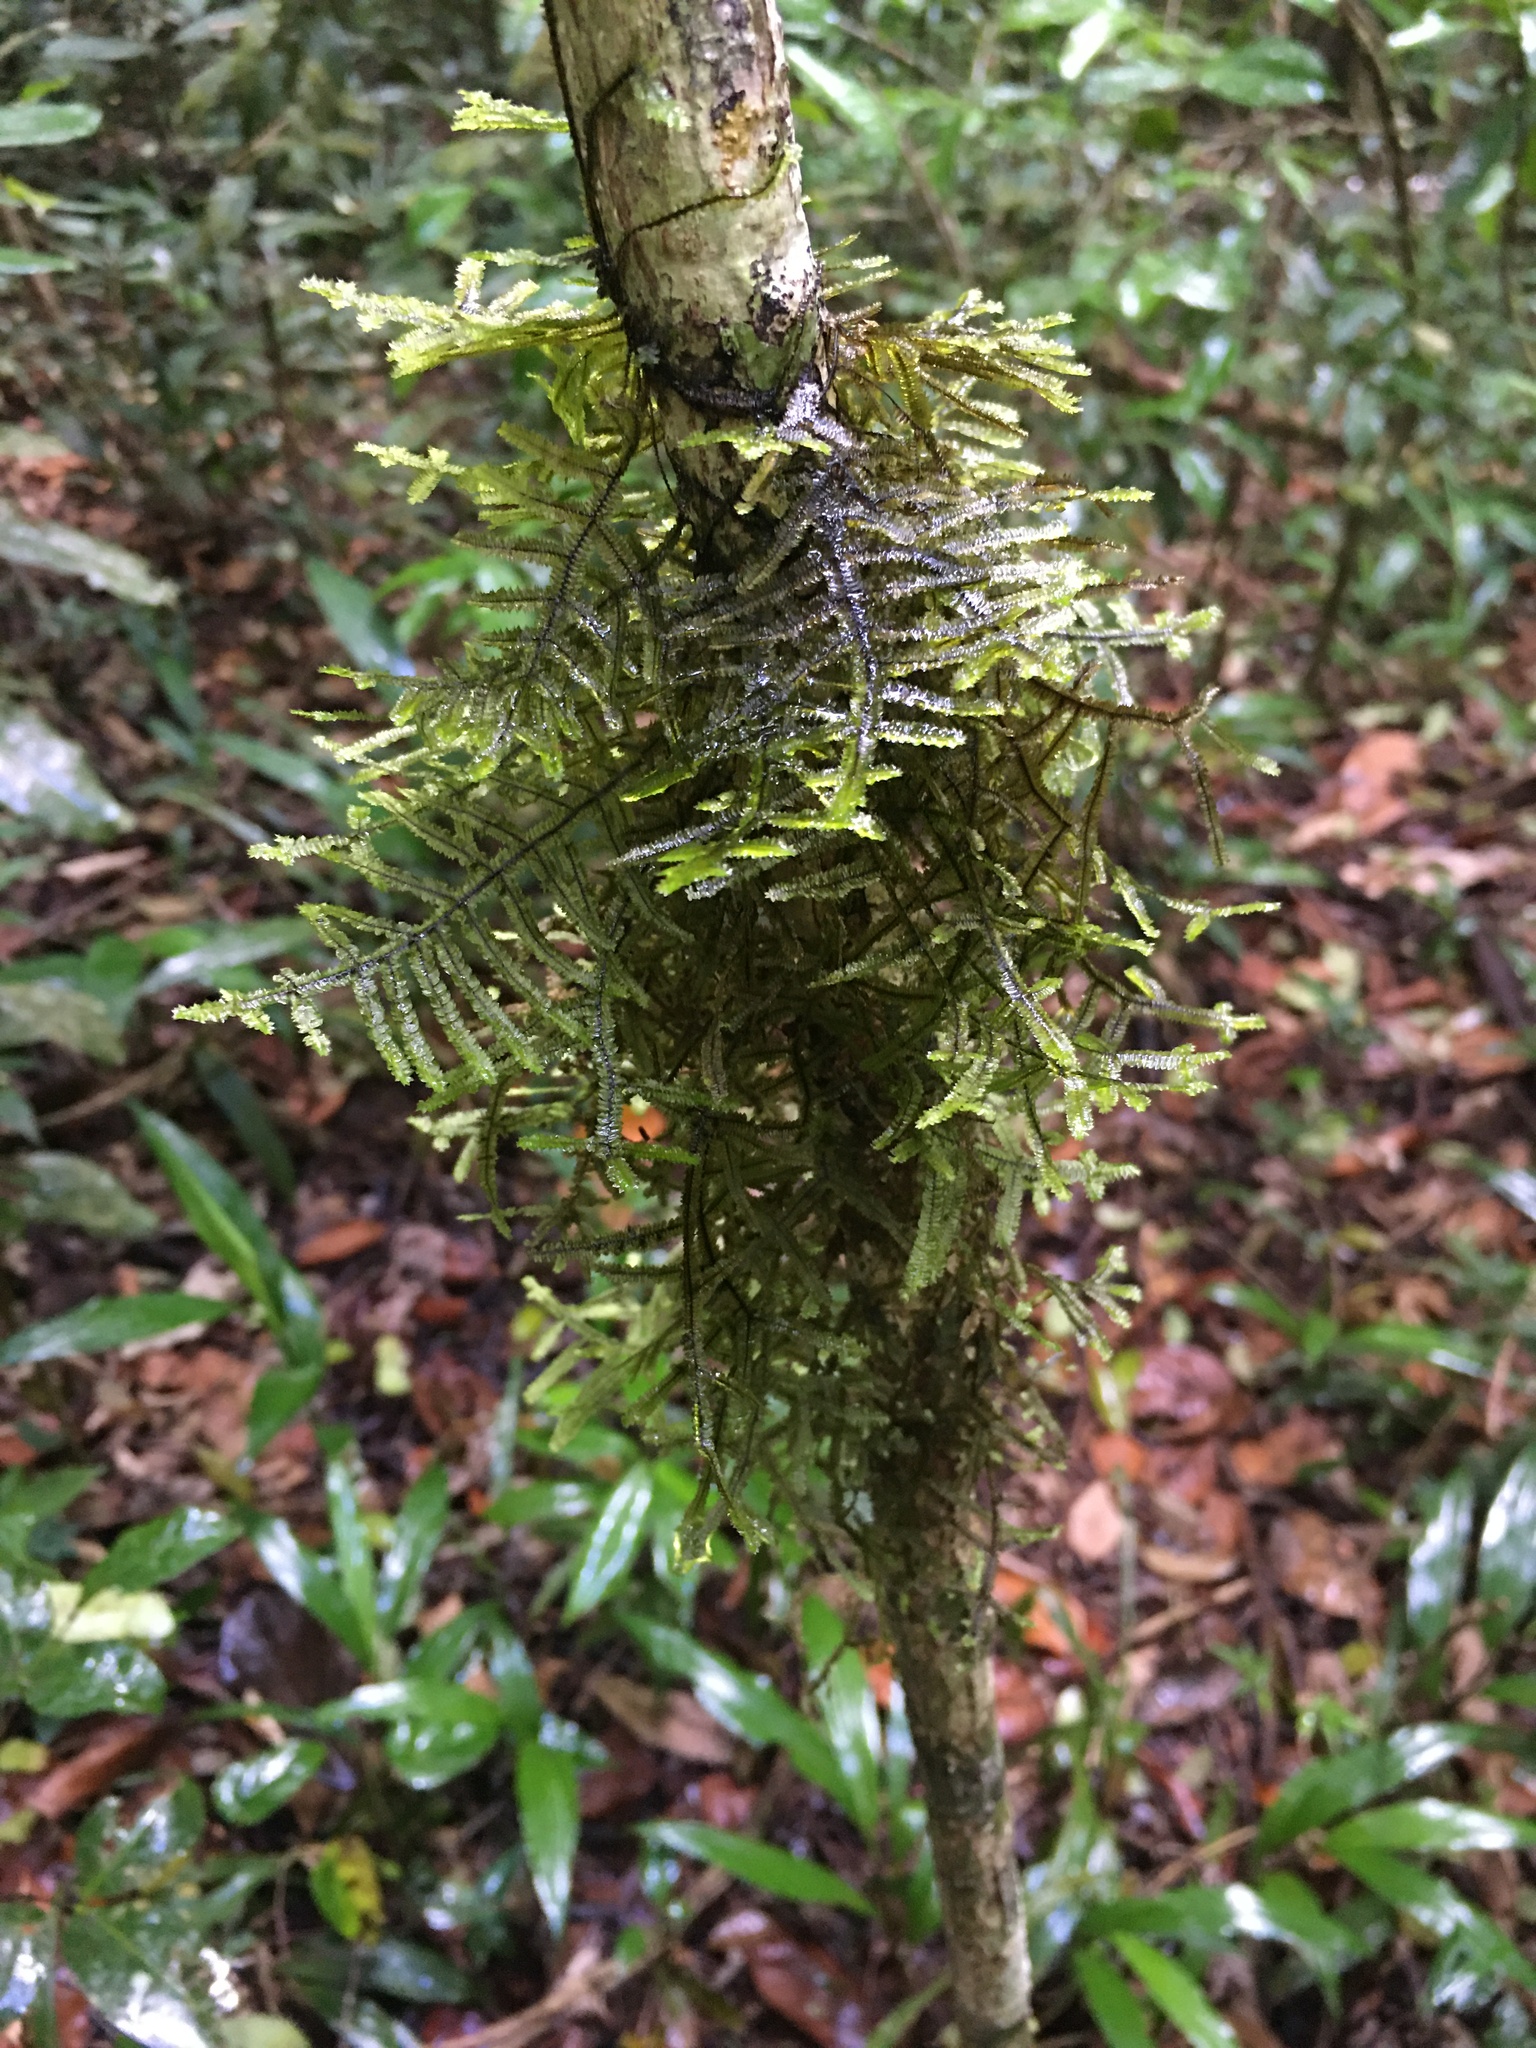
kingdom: Plantae
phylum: Marchantiophyta
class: Jungermanniopsida
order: Porellales
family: Lejeuneaceae
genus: Bryopteris
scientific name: Bryopteris filicina
